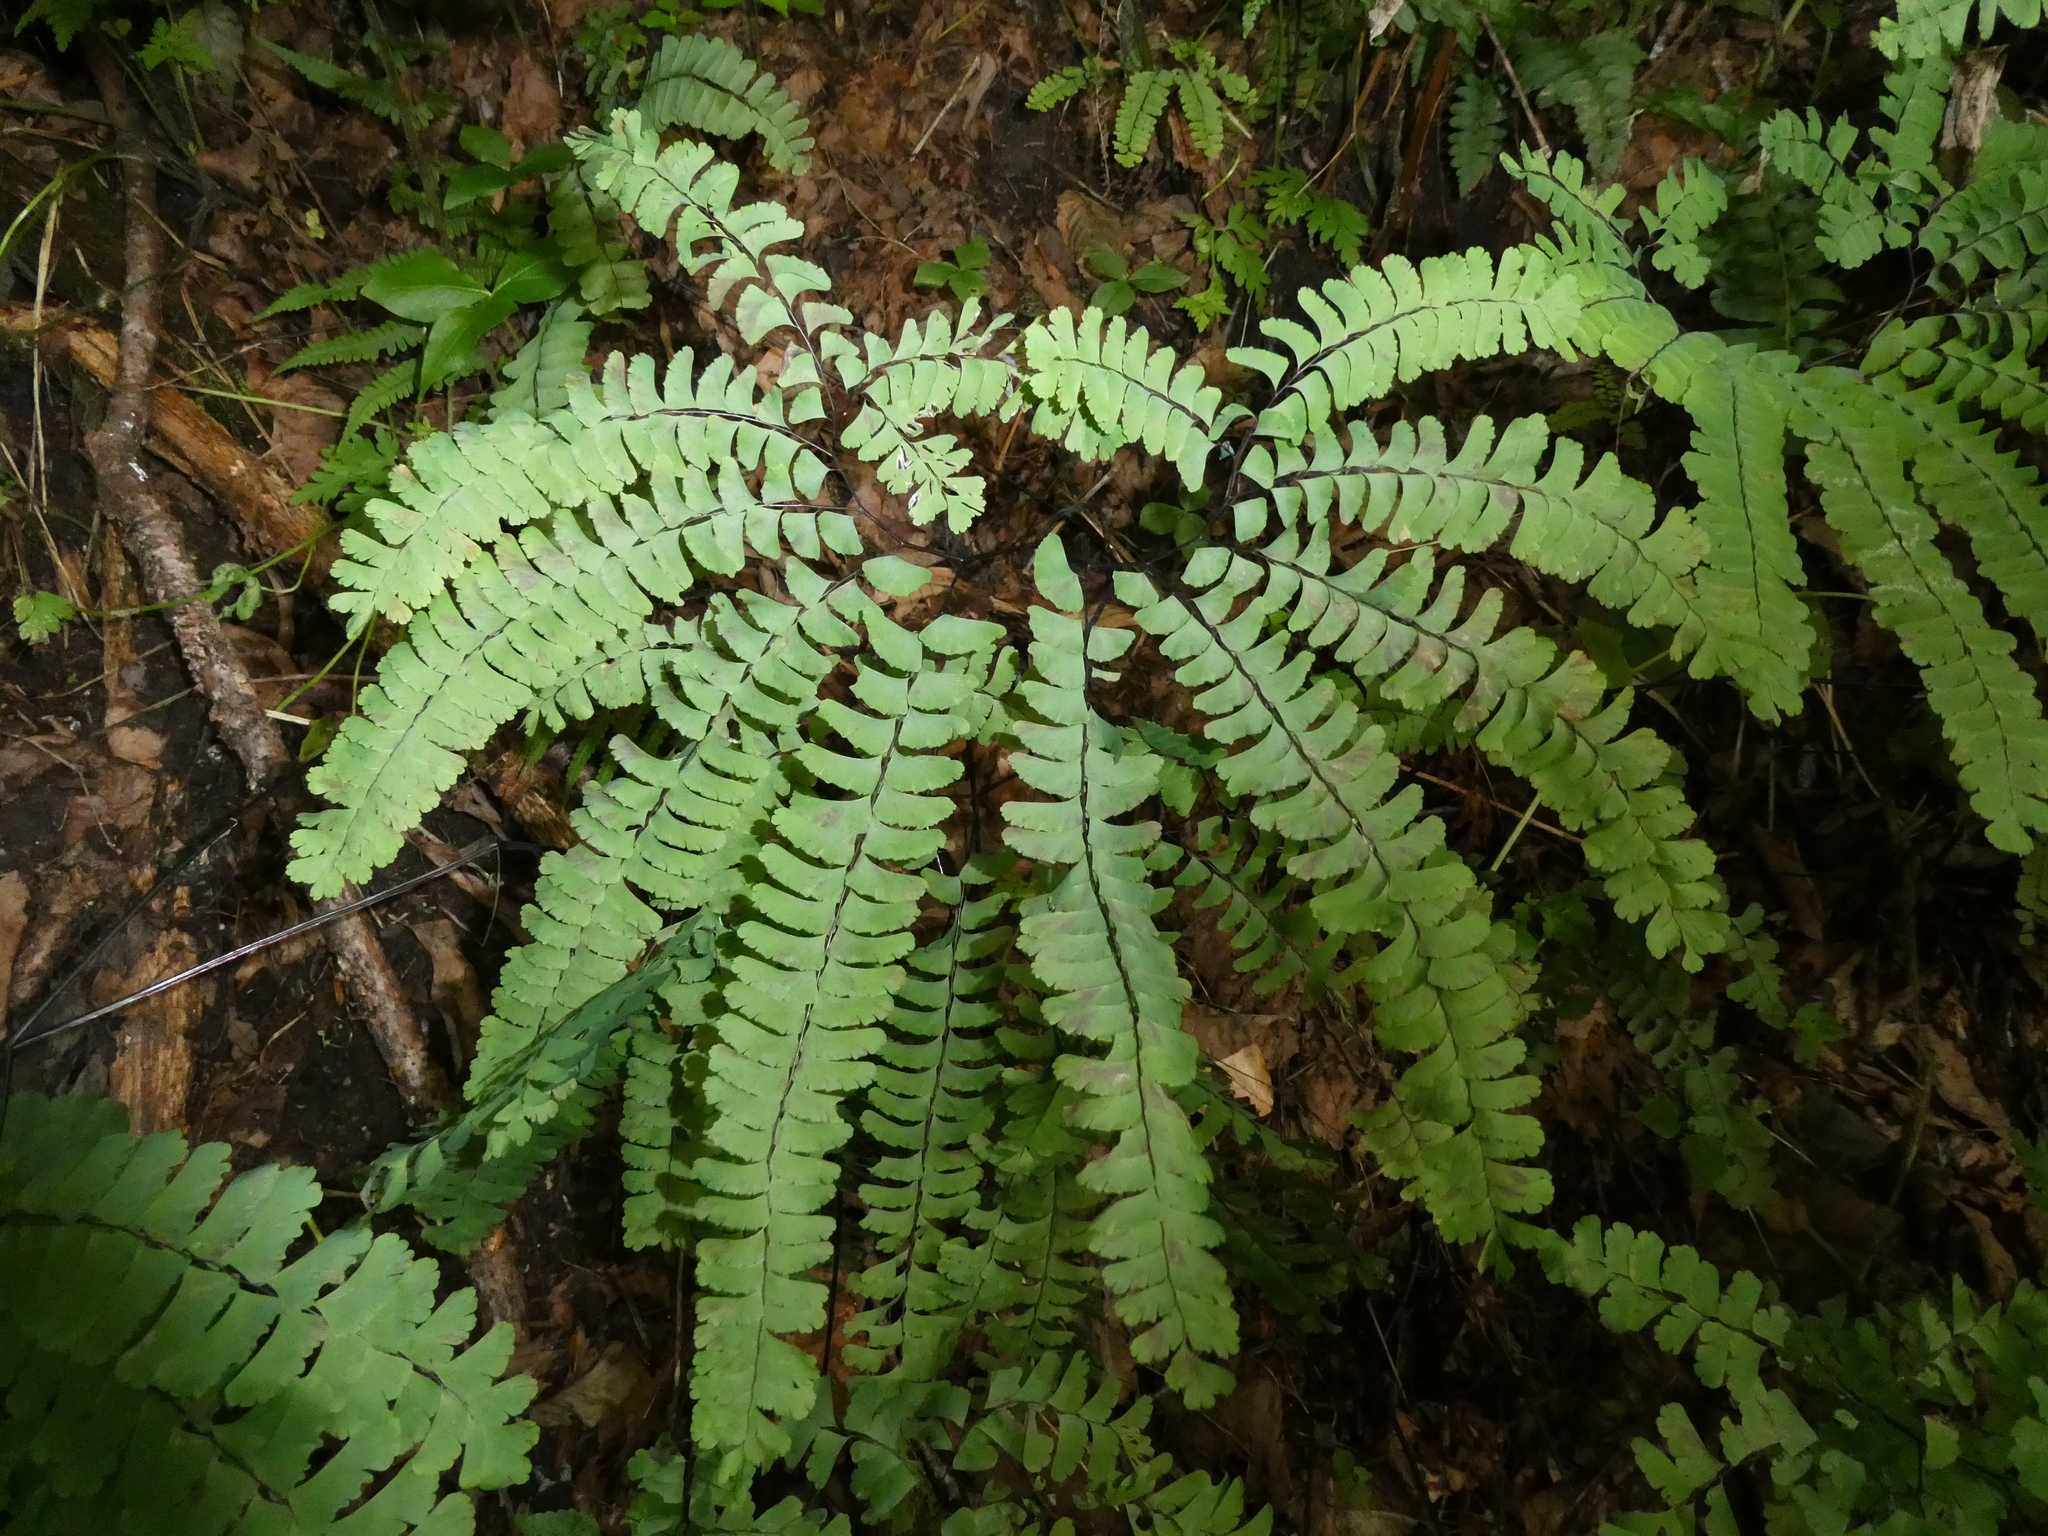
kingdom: Plantae
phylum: Tracheophyta
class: Polypodiopsida
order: Polypodiales
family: Pteridaceae
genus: Adiantum
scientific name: Adiantum pedatum
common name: Five-finger fern
